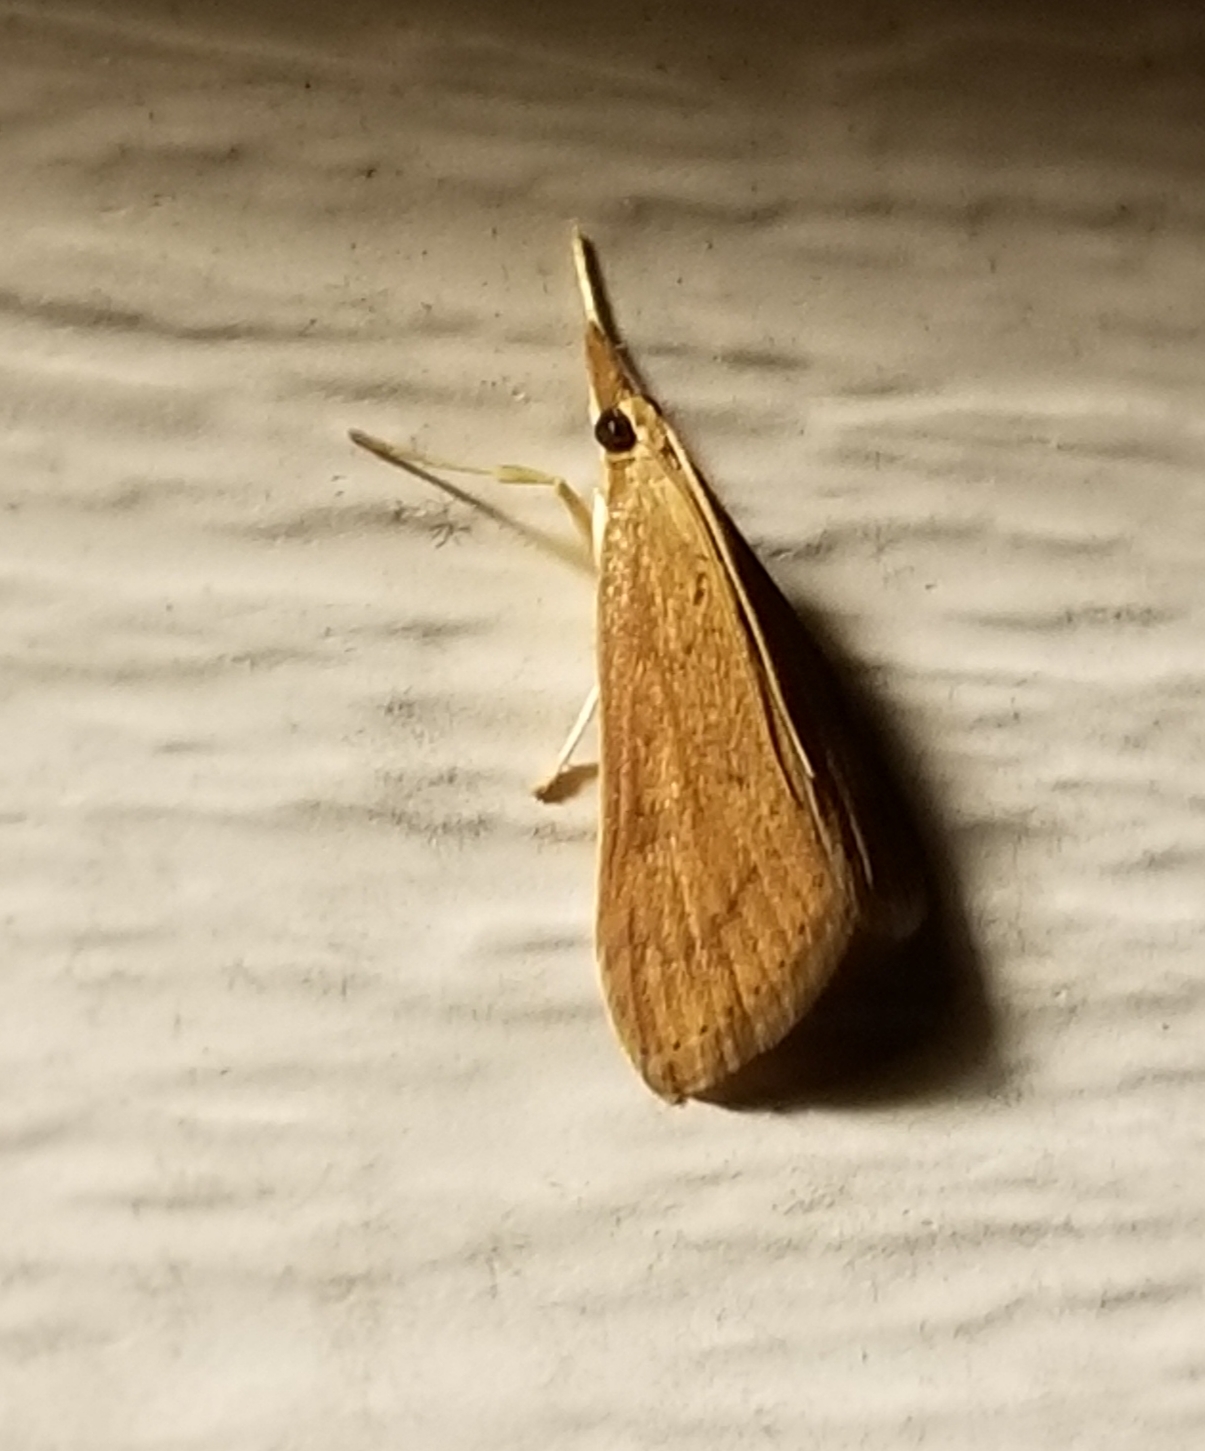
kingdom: Animalia
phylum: Arthropoda
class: Insecta
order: Lepidoptera
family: Crambidae
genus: Udea
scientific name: Udea rubigalis
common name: Celery leaftier moth
